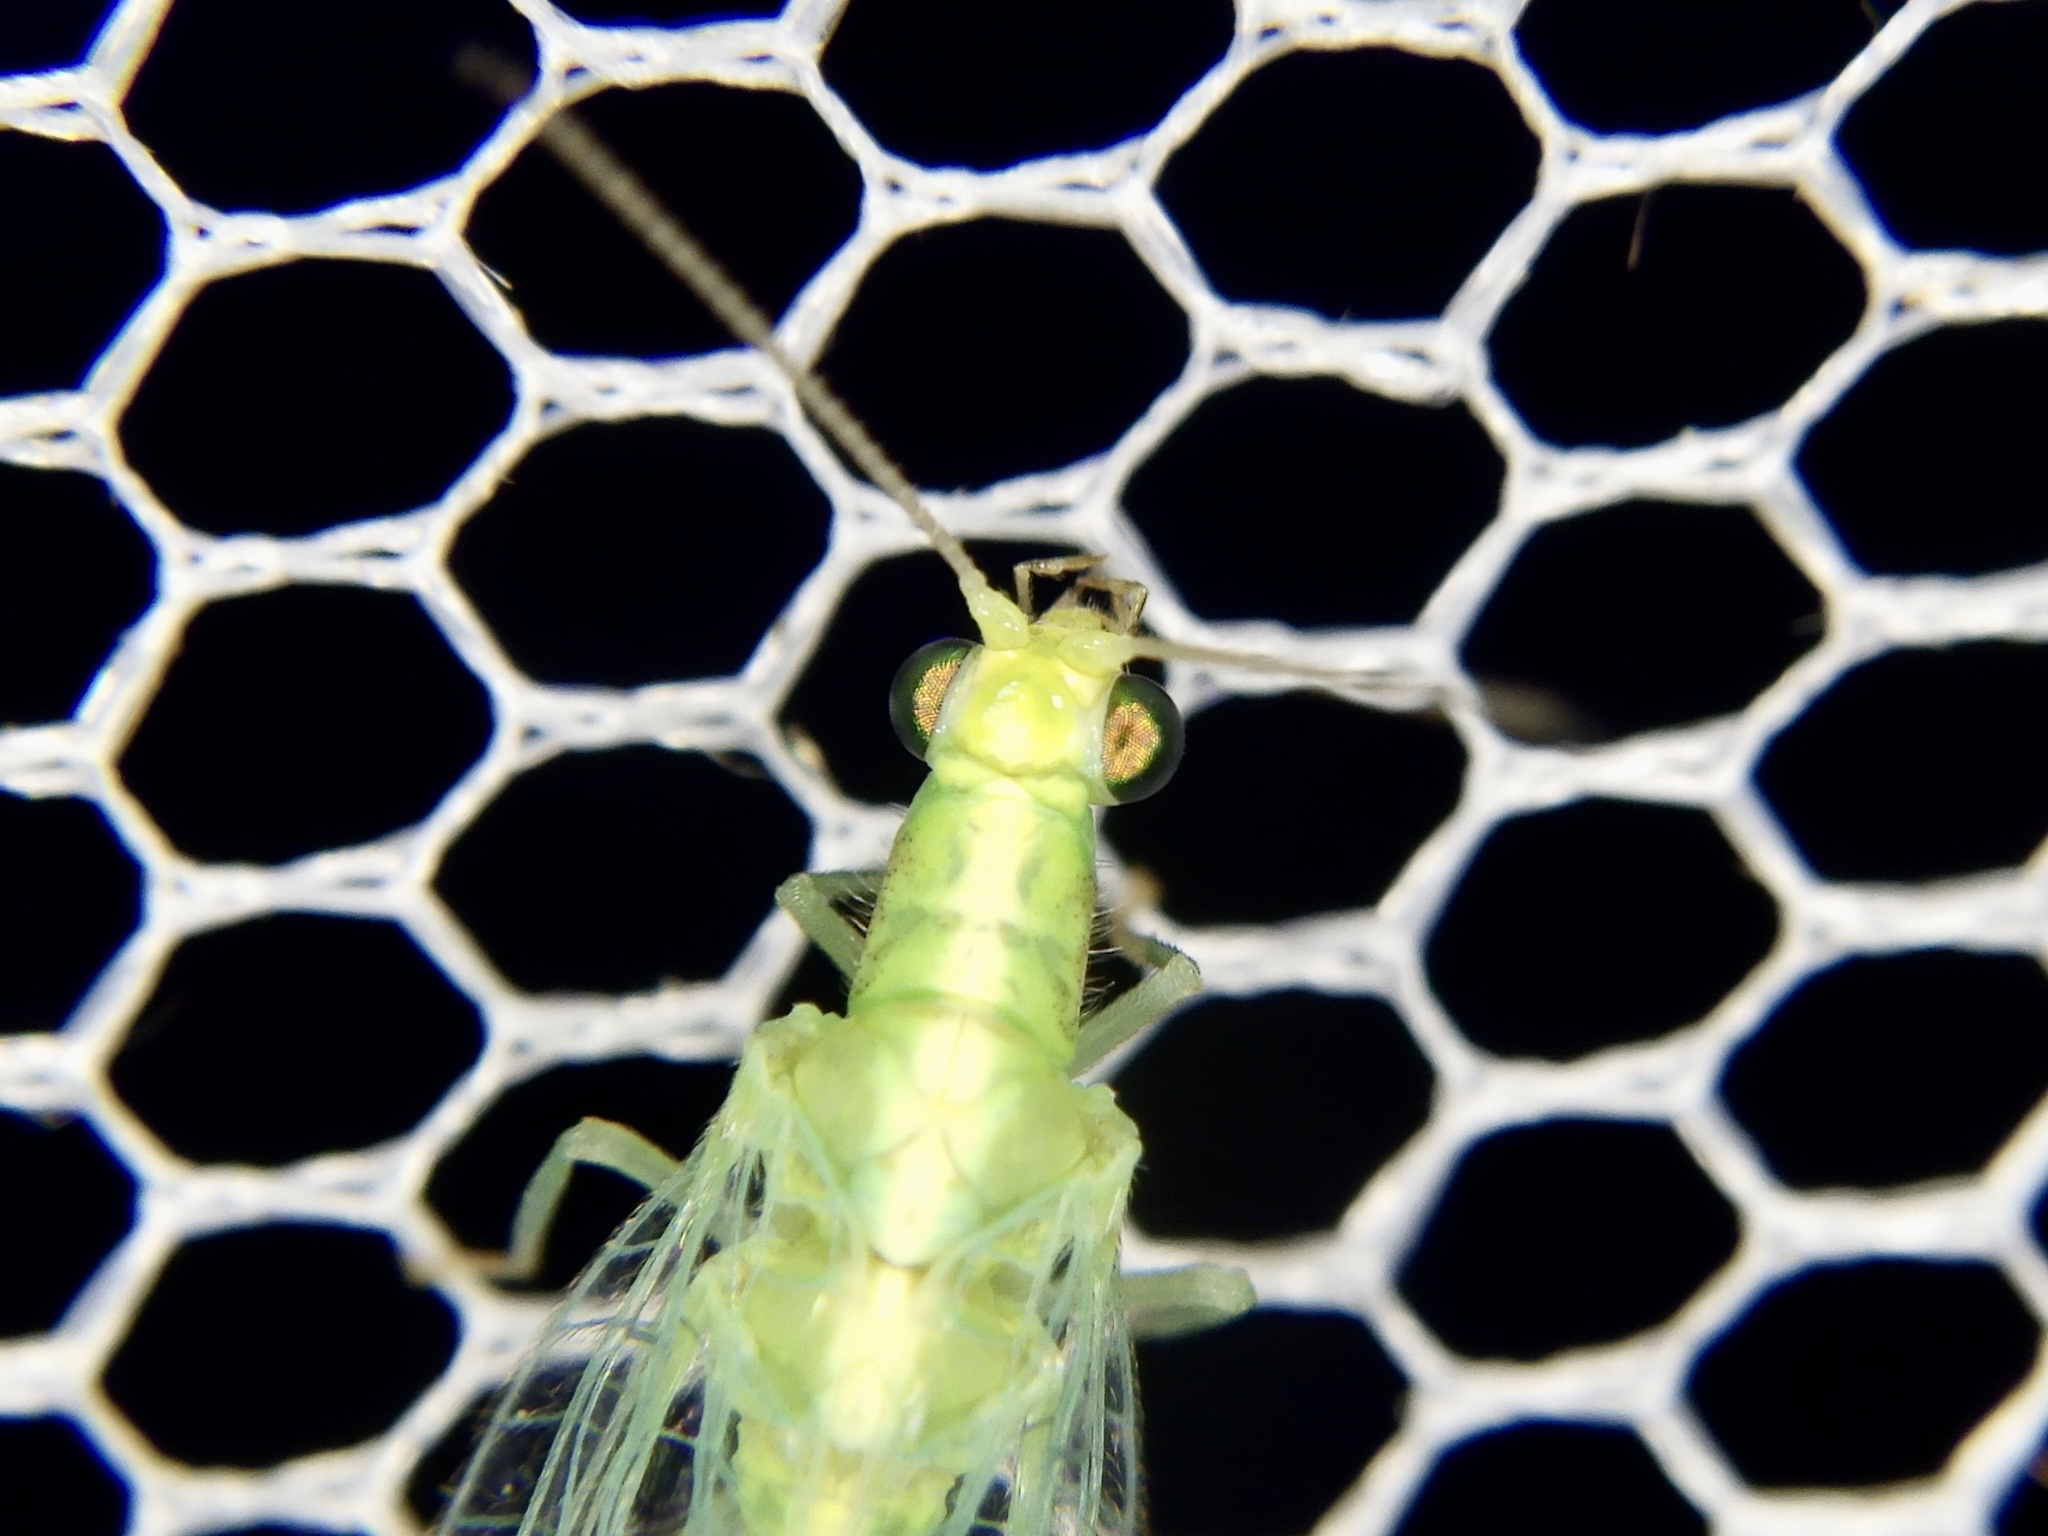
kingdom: Animalia
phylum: Arthropoda
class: Insecta
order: Neuroptera
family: Chrysopidae
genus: Chrysoperla
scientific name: Chrysoperla nipponensis
